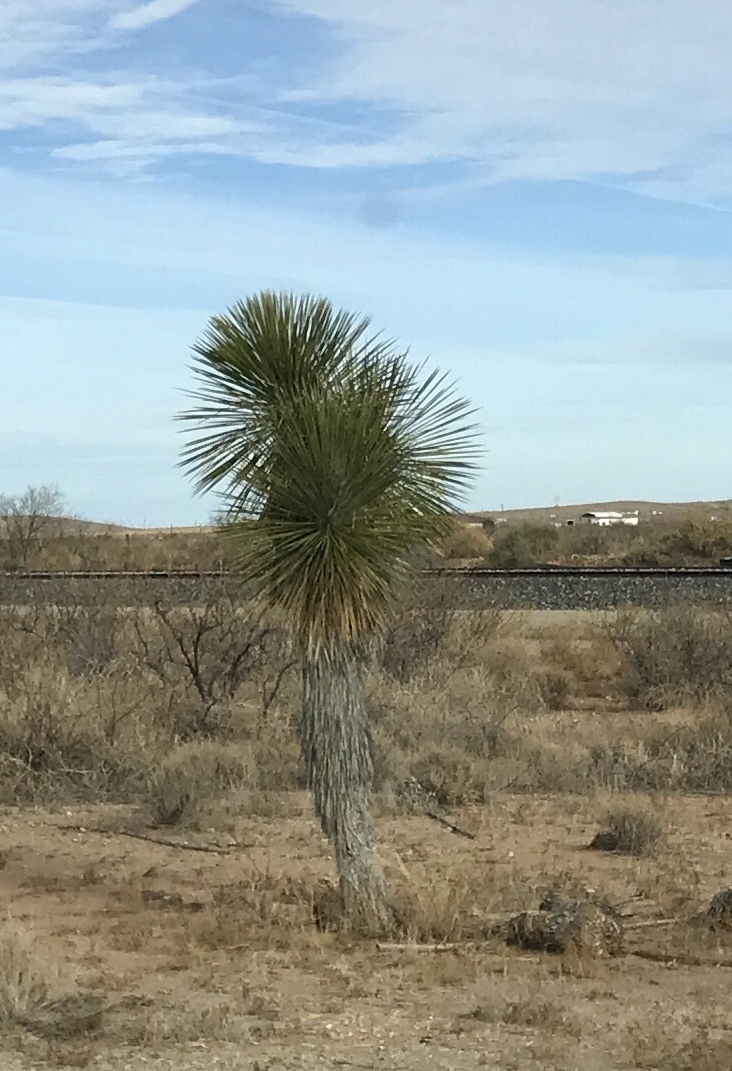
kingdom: Plantae
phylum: Tracheophyta
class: Liliopsida
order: Asparagales
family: Asparagaceae
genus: Yucca
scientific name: Yucca elata
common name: Palmella
